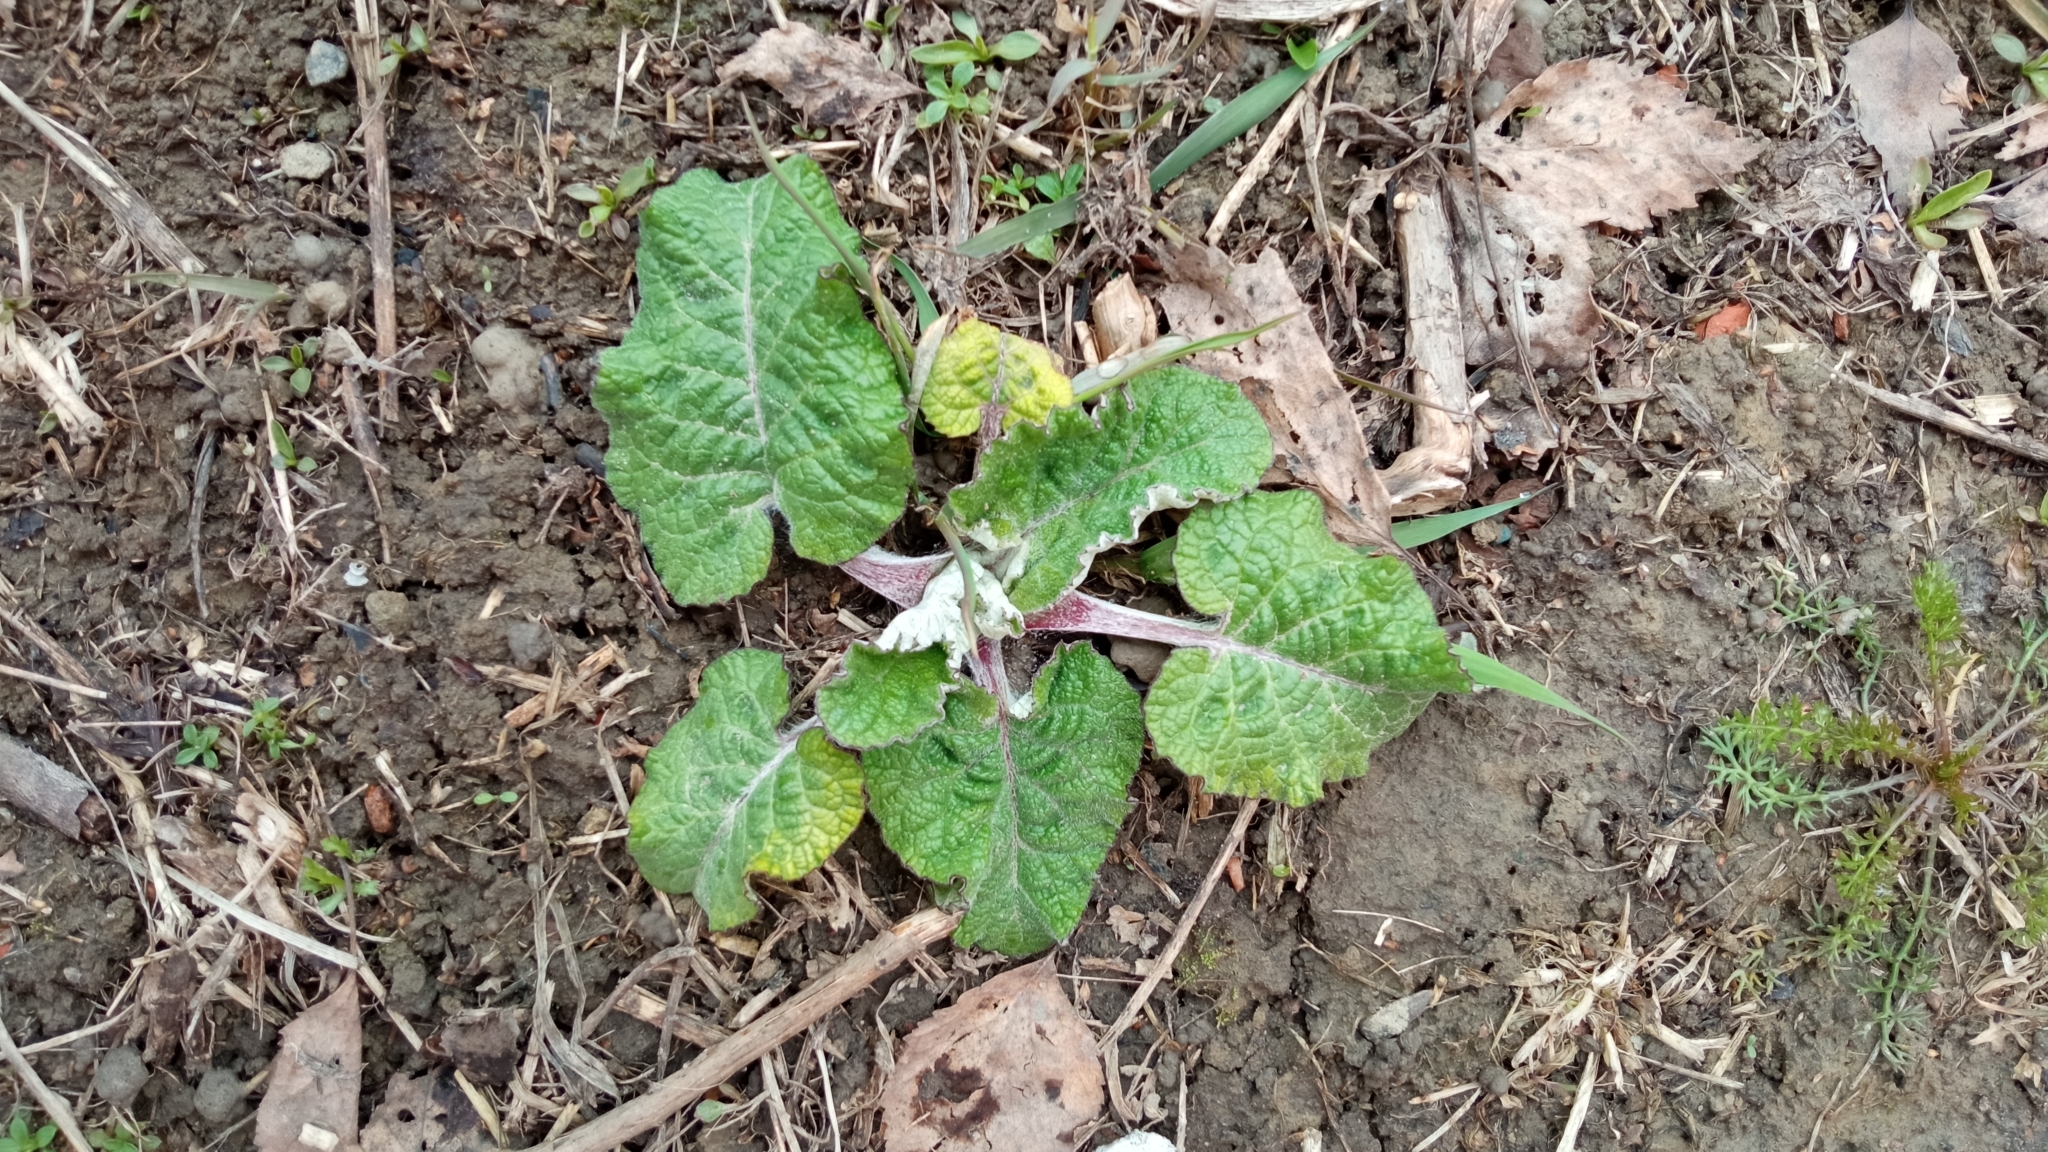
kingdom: Plantae
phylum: Tracheophyta
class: Magnoliopsida
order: Asterales
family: Asteraceae
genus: Arctium
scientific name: Arctium tomentosum
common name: Woolly burdock
